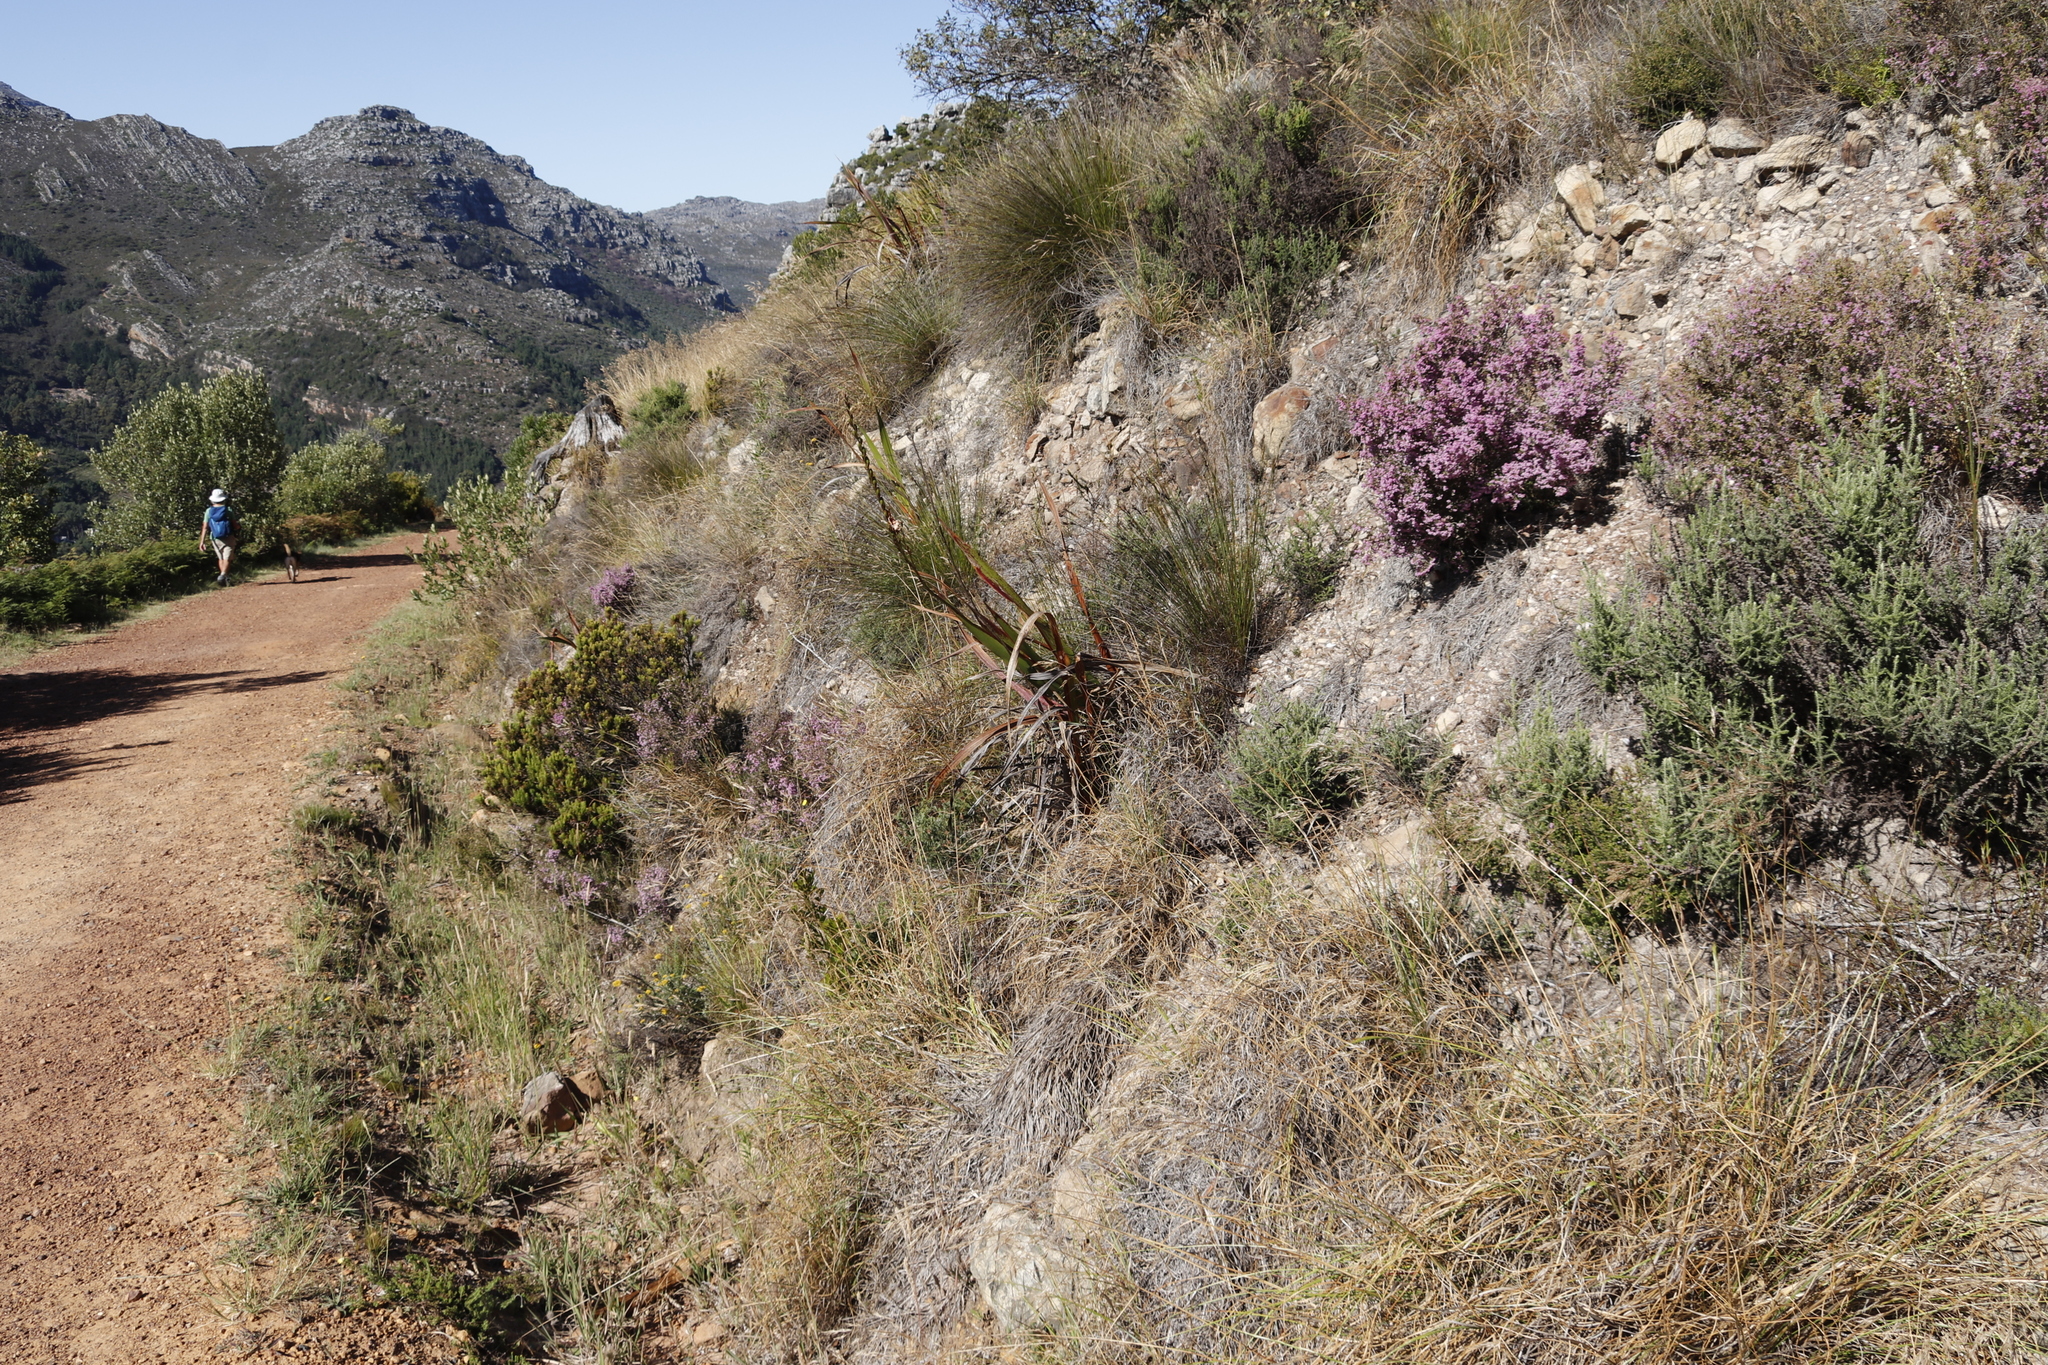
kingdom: Plantae
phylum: Tracheophyta
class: Magnoliopsida
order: Ericales
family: Ericaceae
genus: Erica
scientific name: Erica hirtiflora
